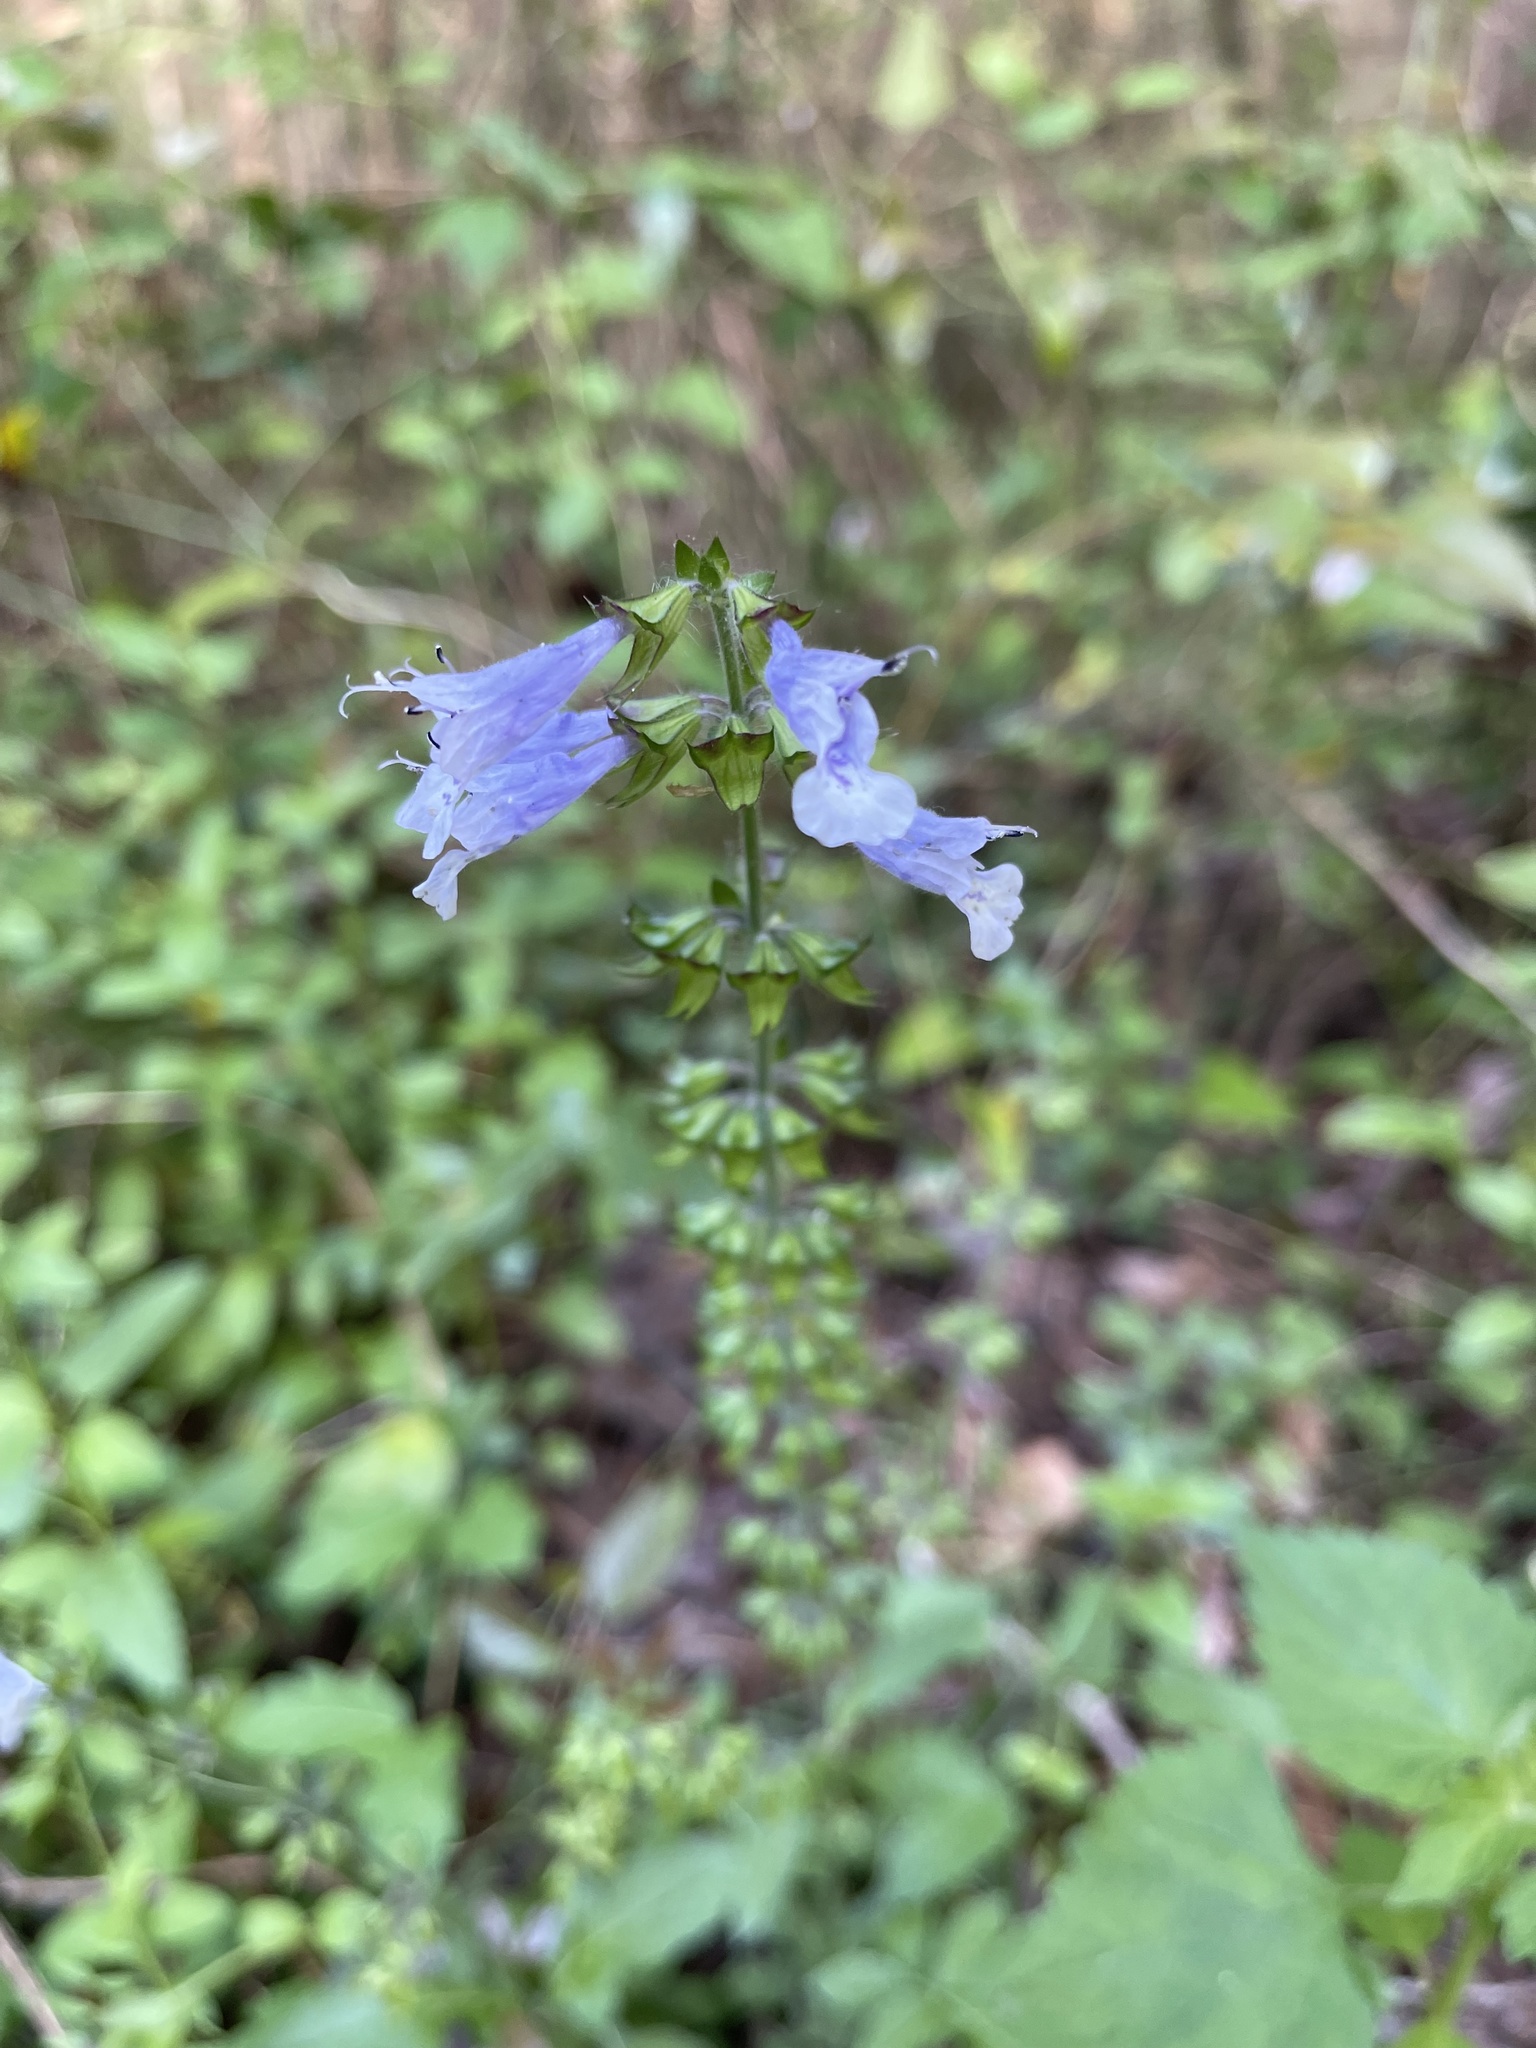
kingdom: Plantae
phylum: Tracheophyta
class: Magnoliopsida
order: Lamiales
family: Lamiaceae
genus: Salvia
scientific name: Salvia lyrata
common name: Cancerweed
